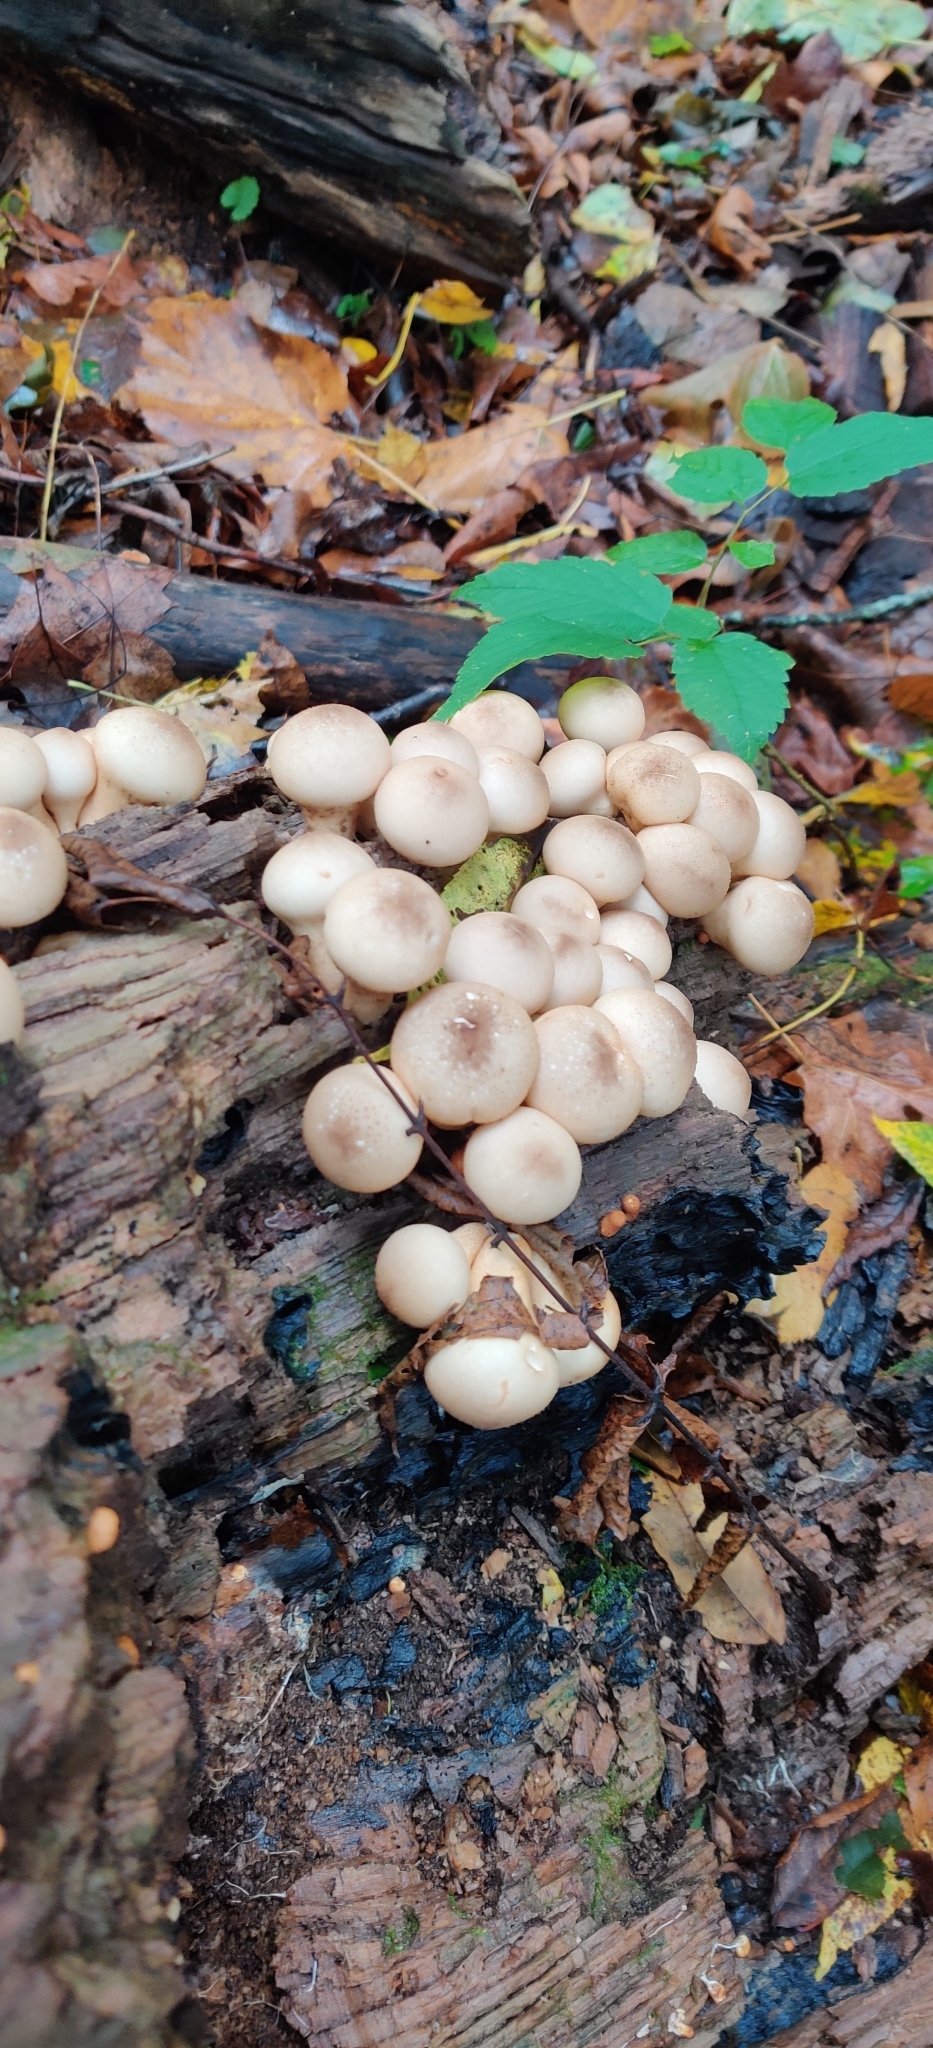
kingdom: Fungi
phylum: Basidiomycota
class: Agaricomycetes
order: Agaricales
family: Lycoperdaceae
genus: Apioperdon
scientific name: Apioperdon pyriforme
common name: Pear-shaped puffball
